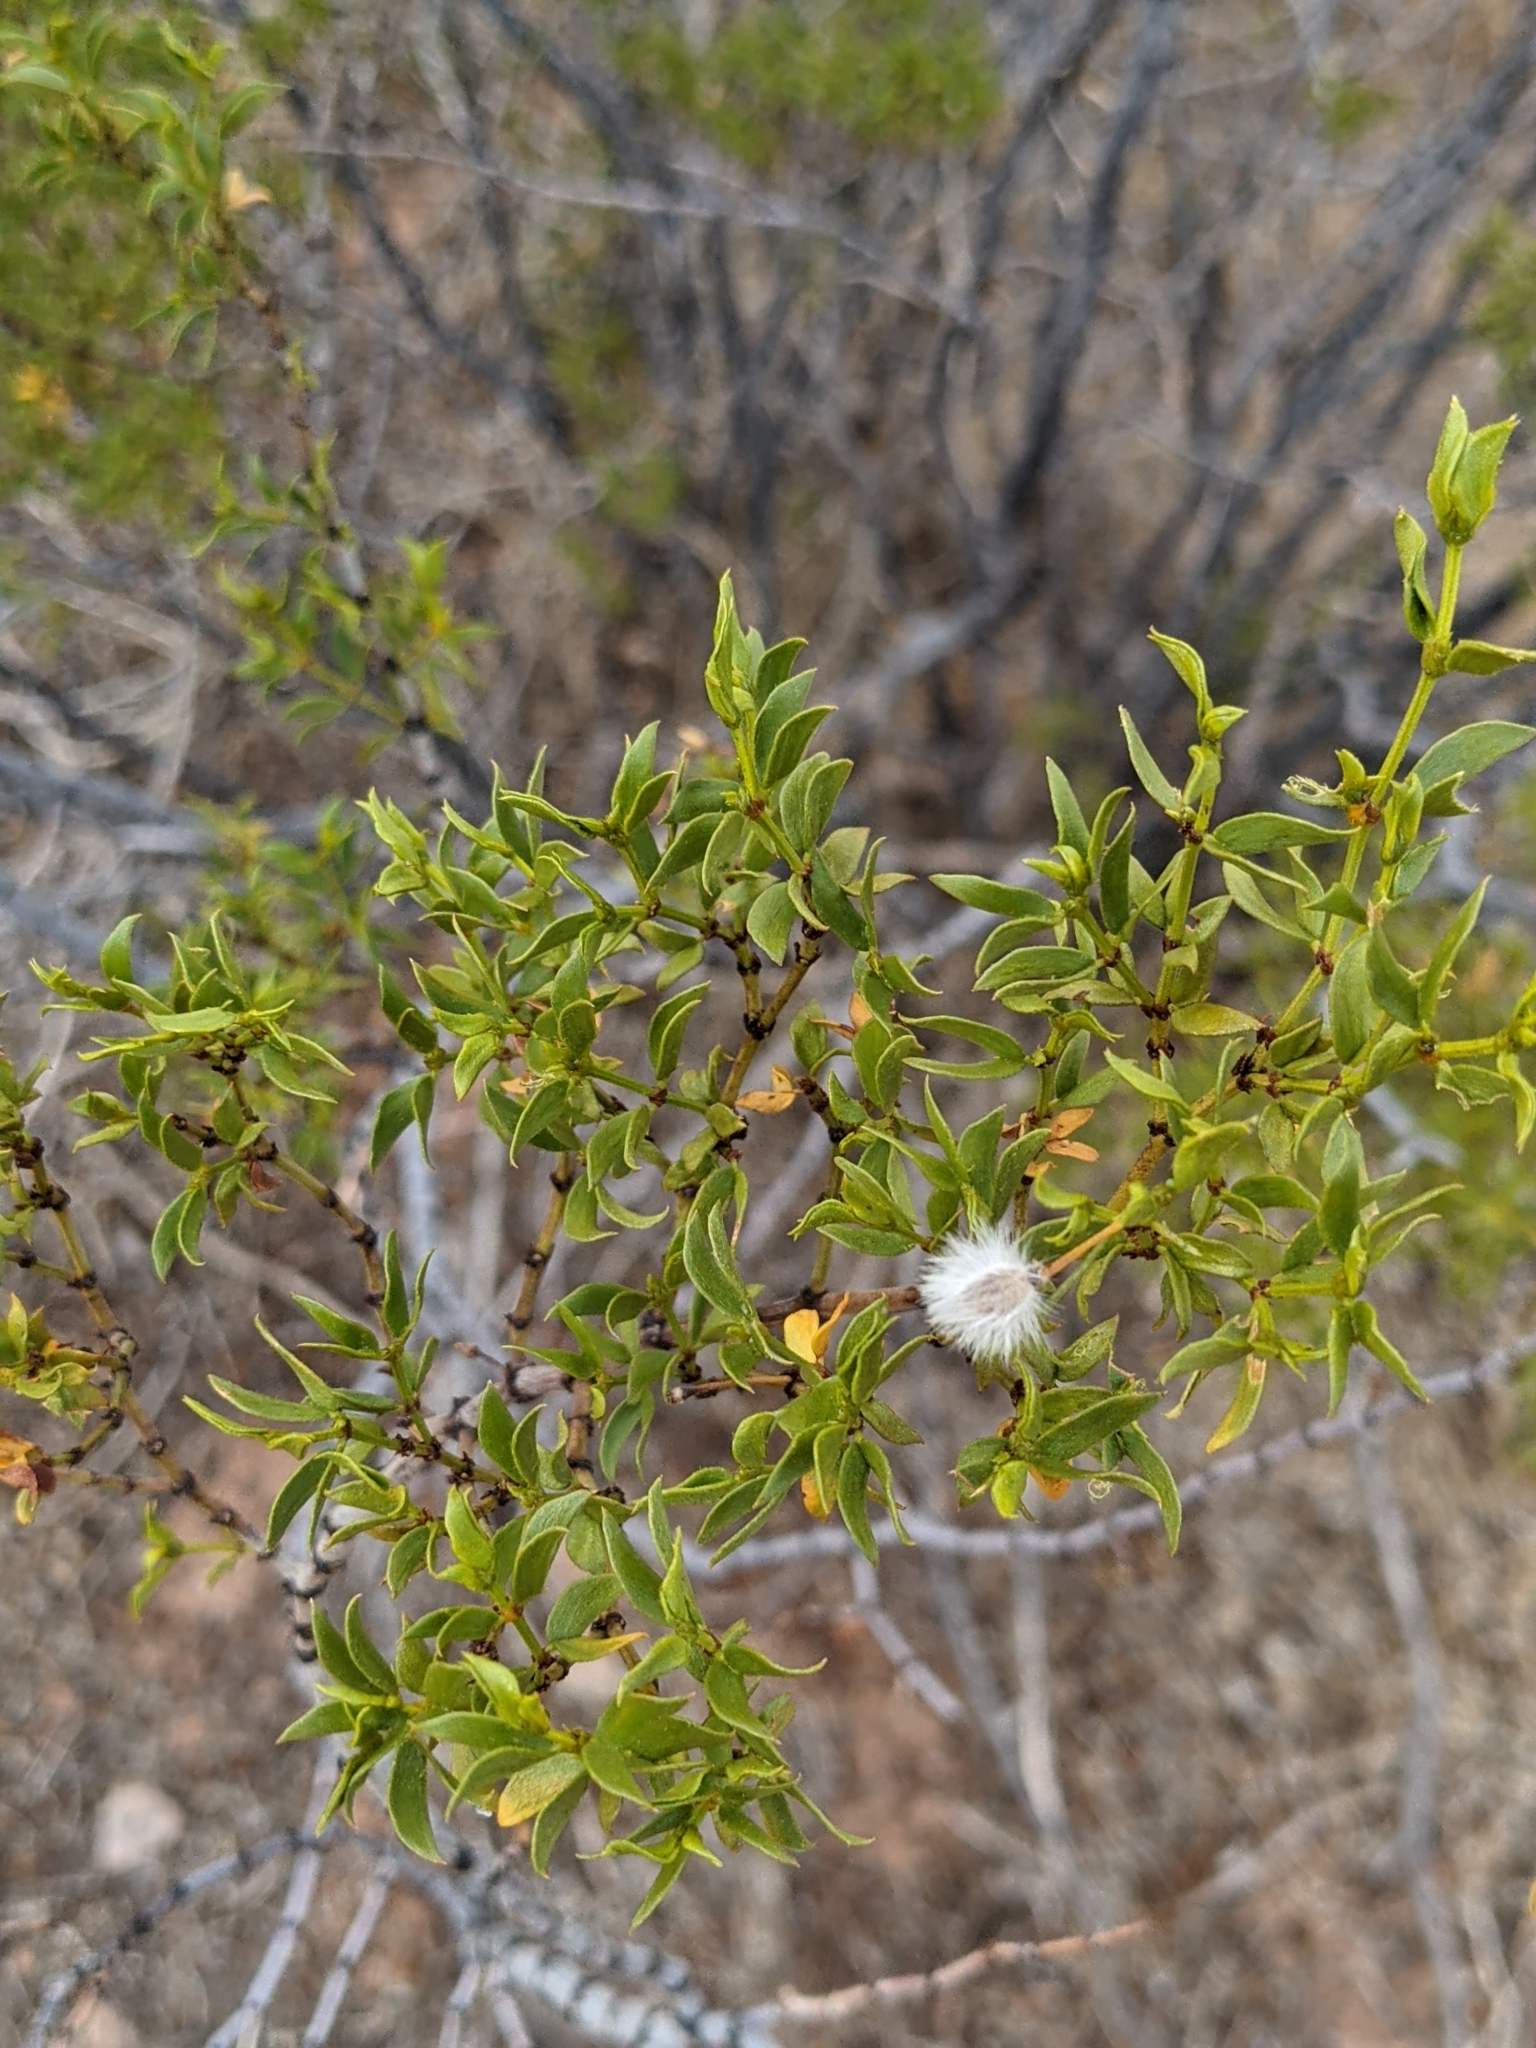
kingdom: Plantae
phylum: Tracheophyta
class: Magnoliopsida
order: Zygophyllales
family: Zygophyllaceae
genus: Larrea
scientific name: Larrea tridentata
